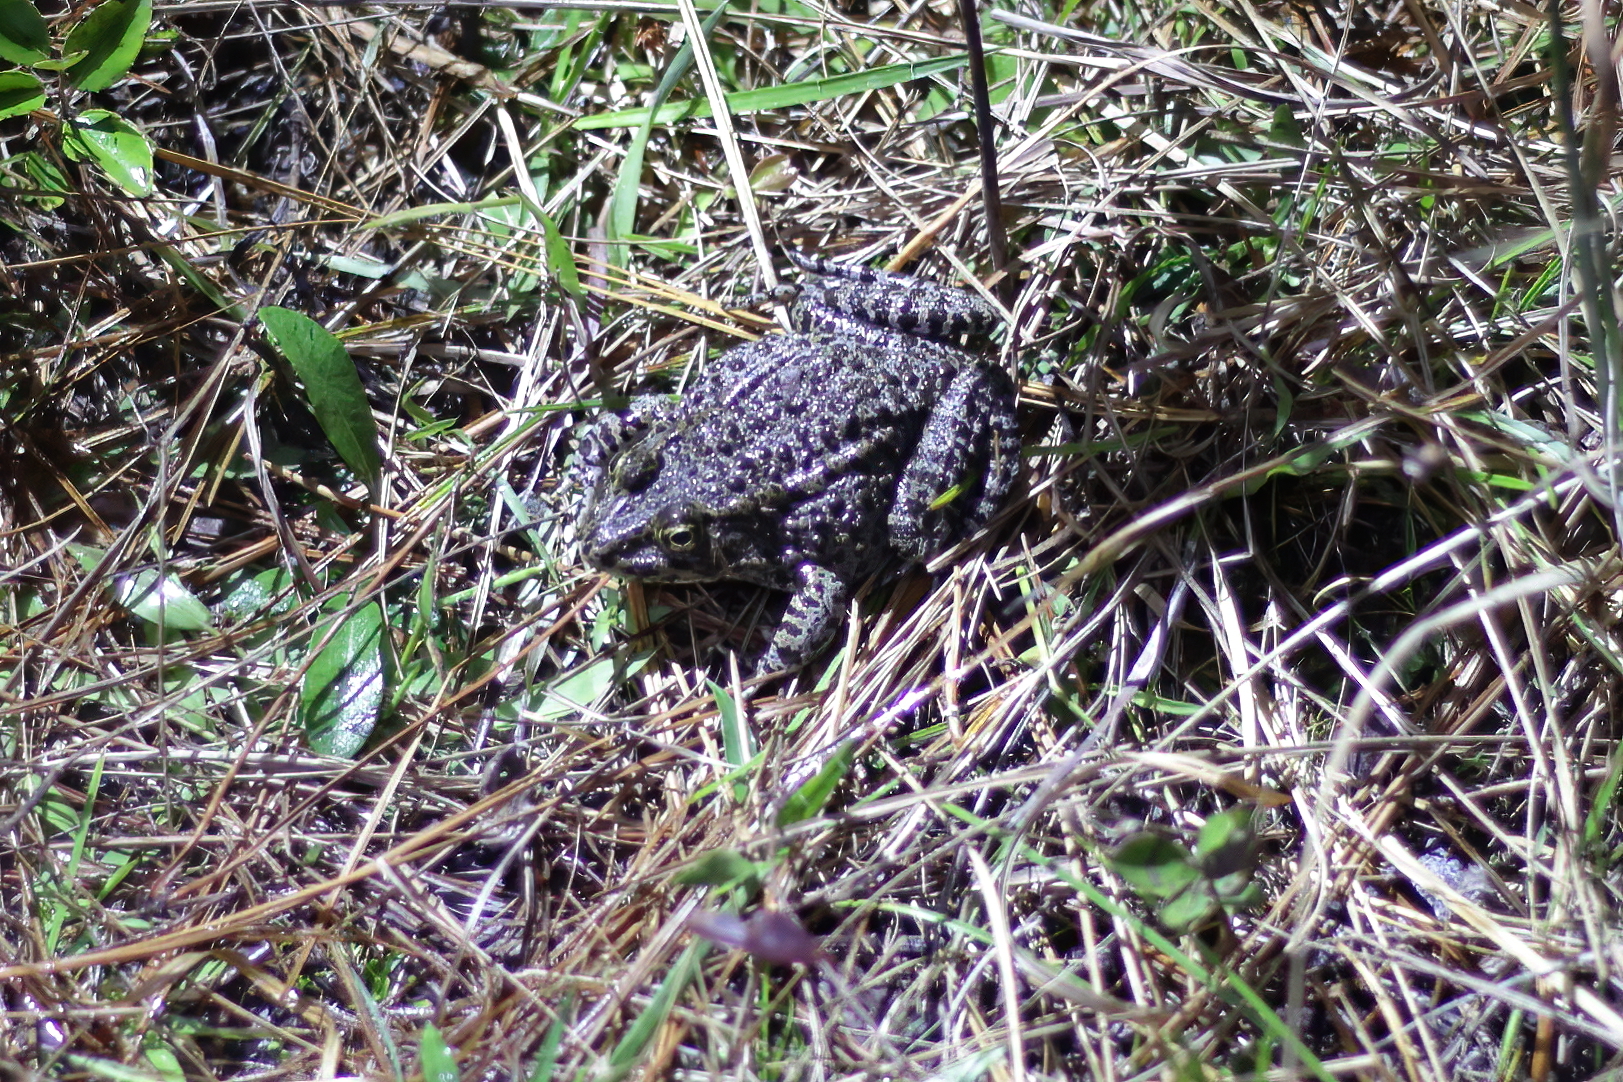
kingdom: Animalia
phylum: Chordata
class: Amphibia
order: Anura
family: Ranidae
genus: Lithobates
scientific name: Lithobates sevosus
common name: Dusky gopher frog
